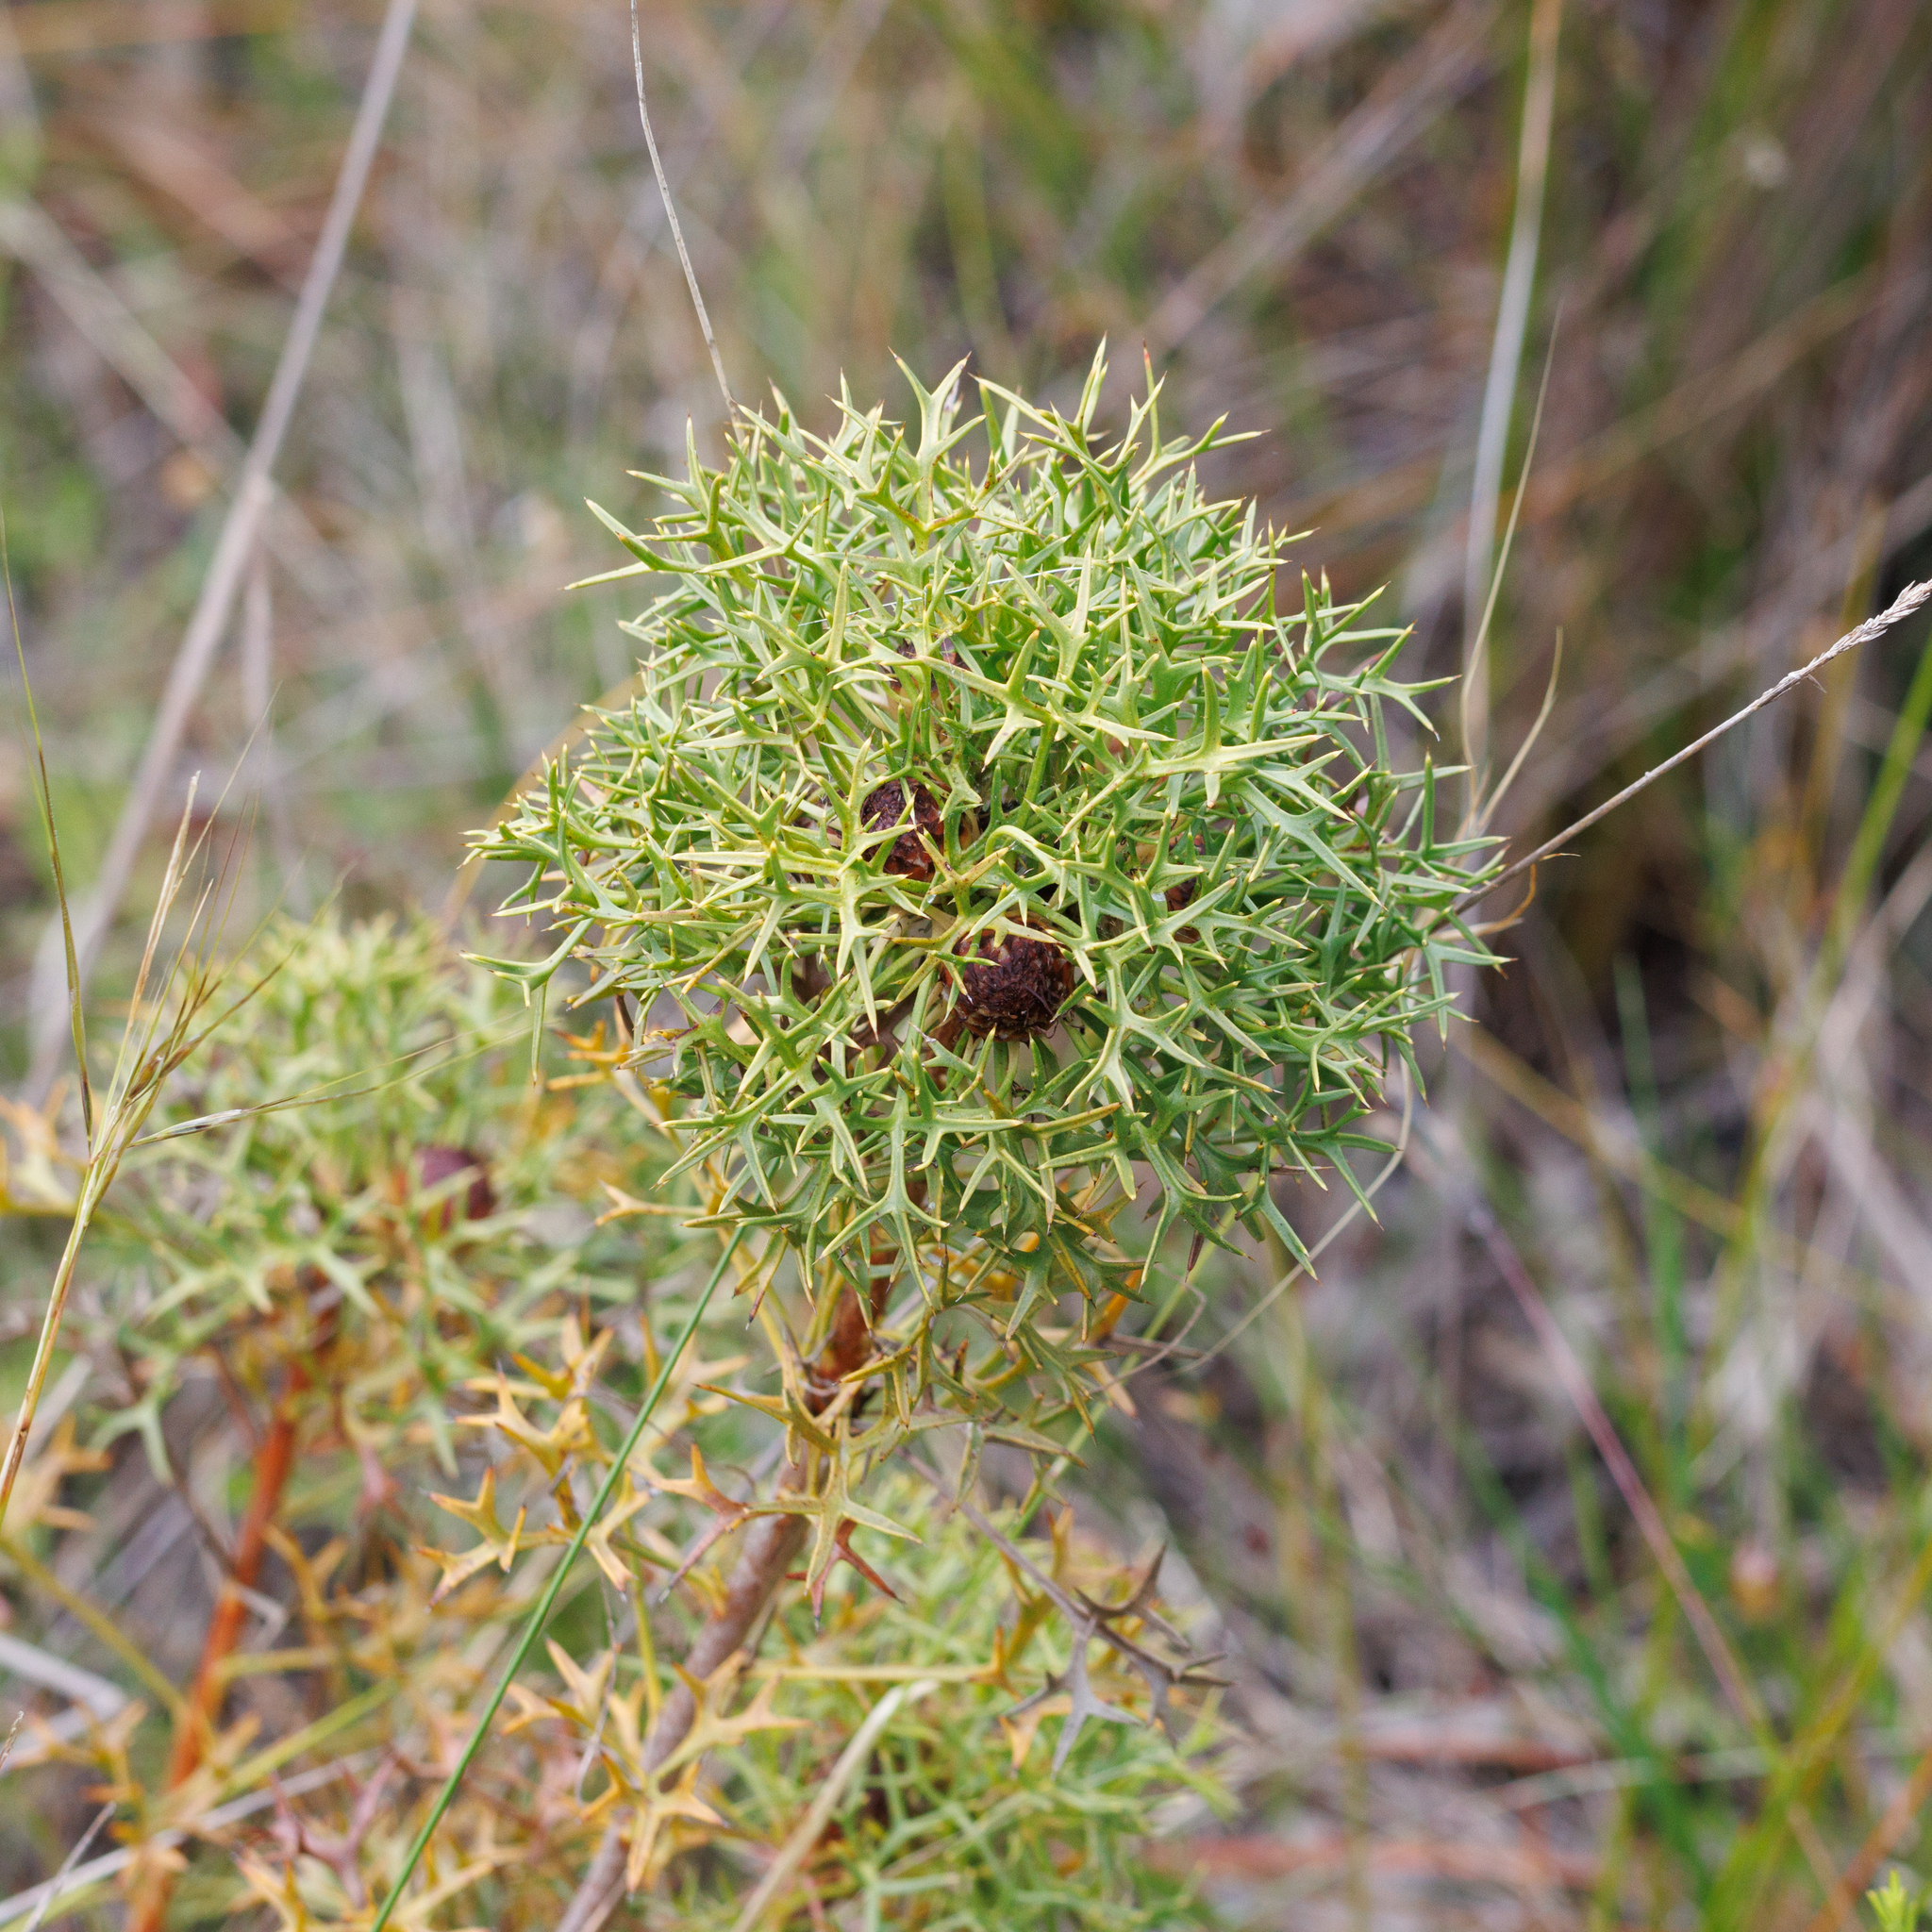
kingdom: Plantae
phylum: Tracheophyta
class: Magnoliopsida
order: Proteales
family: Proteaceae
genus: Isopogon
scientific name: Isopogon ceratophyllus
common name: Horny cone-bush
